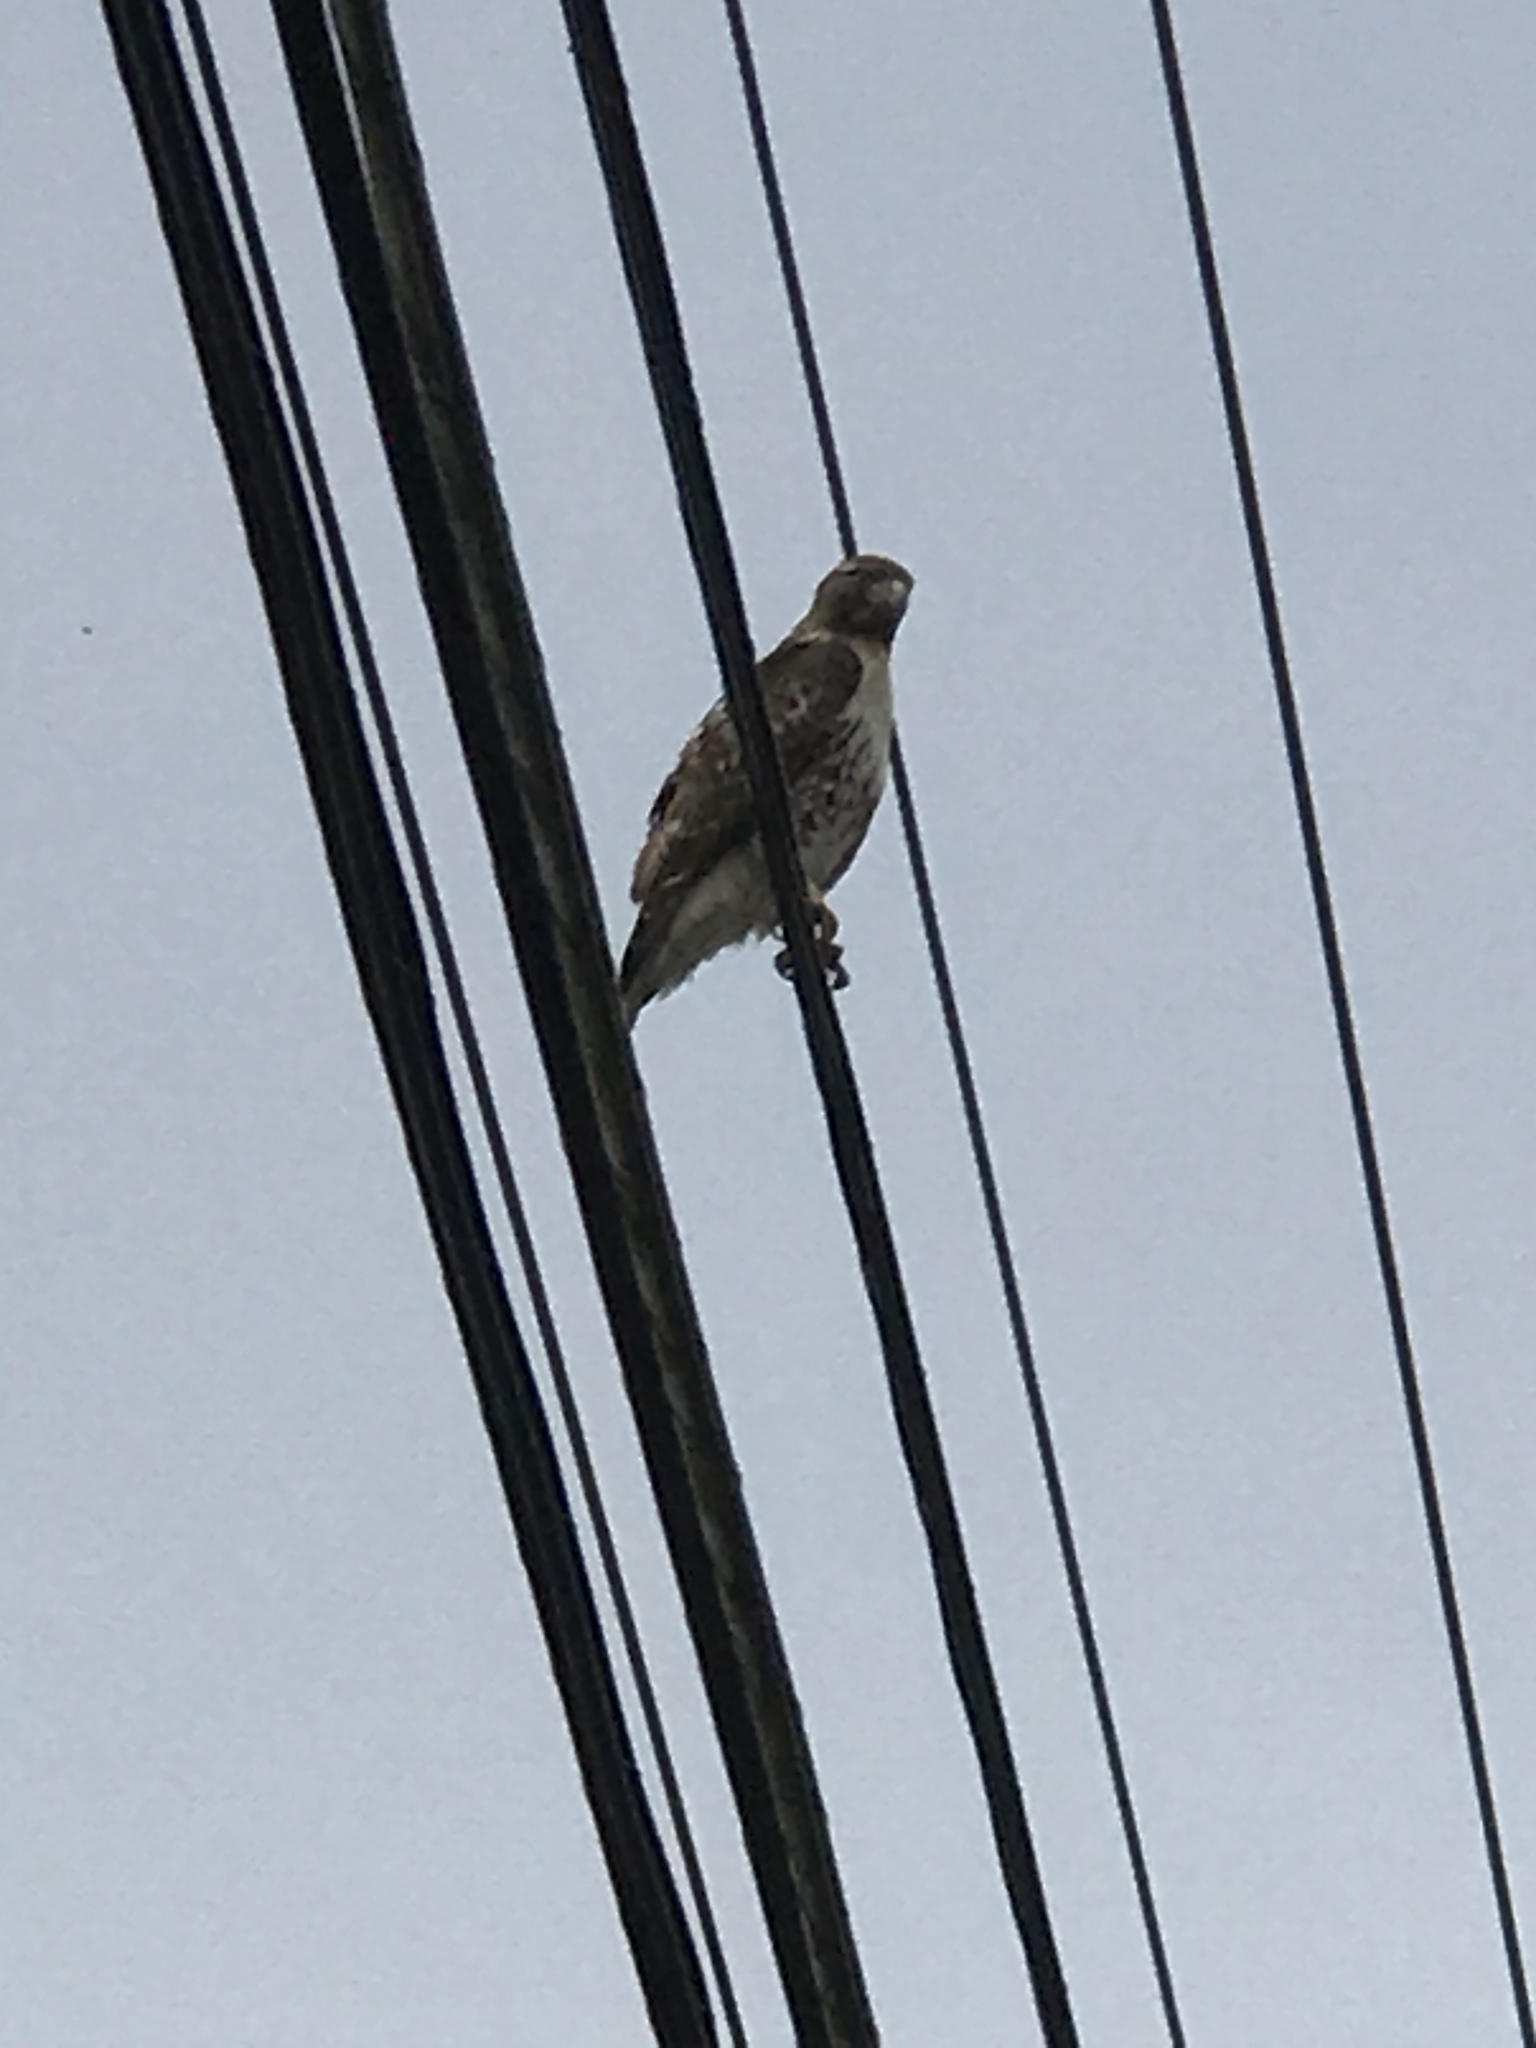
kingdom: Animalia
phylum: Chordata
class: Aves
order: Accipitriformes
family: Accipitridae
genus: Buteo
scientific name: Buteo jamaicensis
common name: Red-tailed hawk
